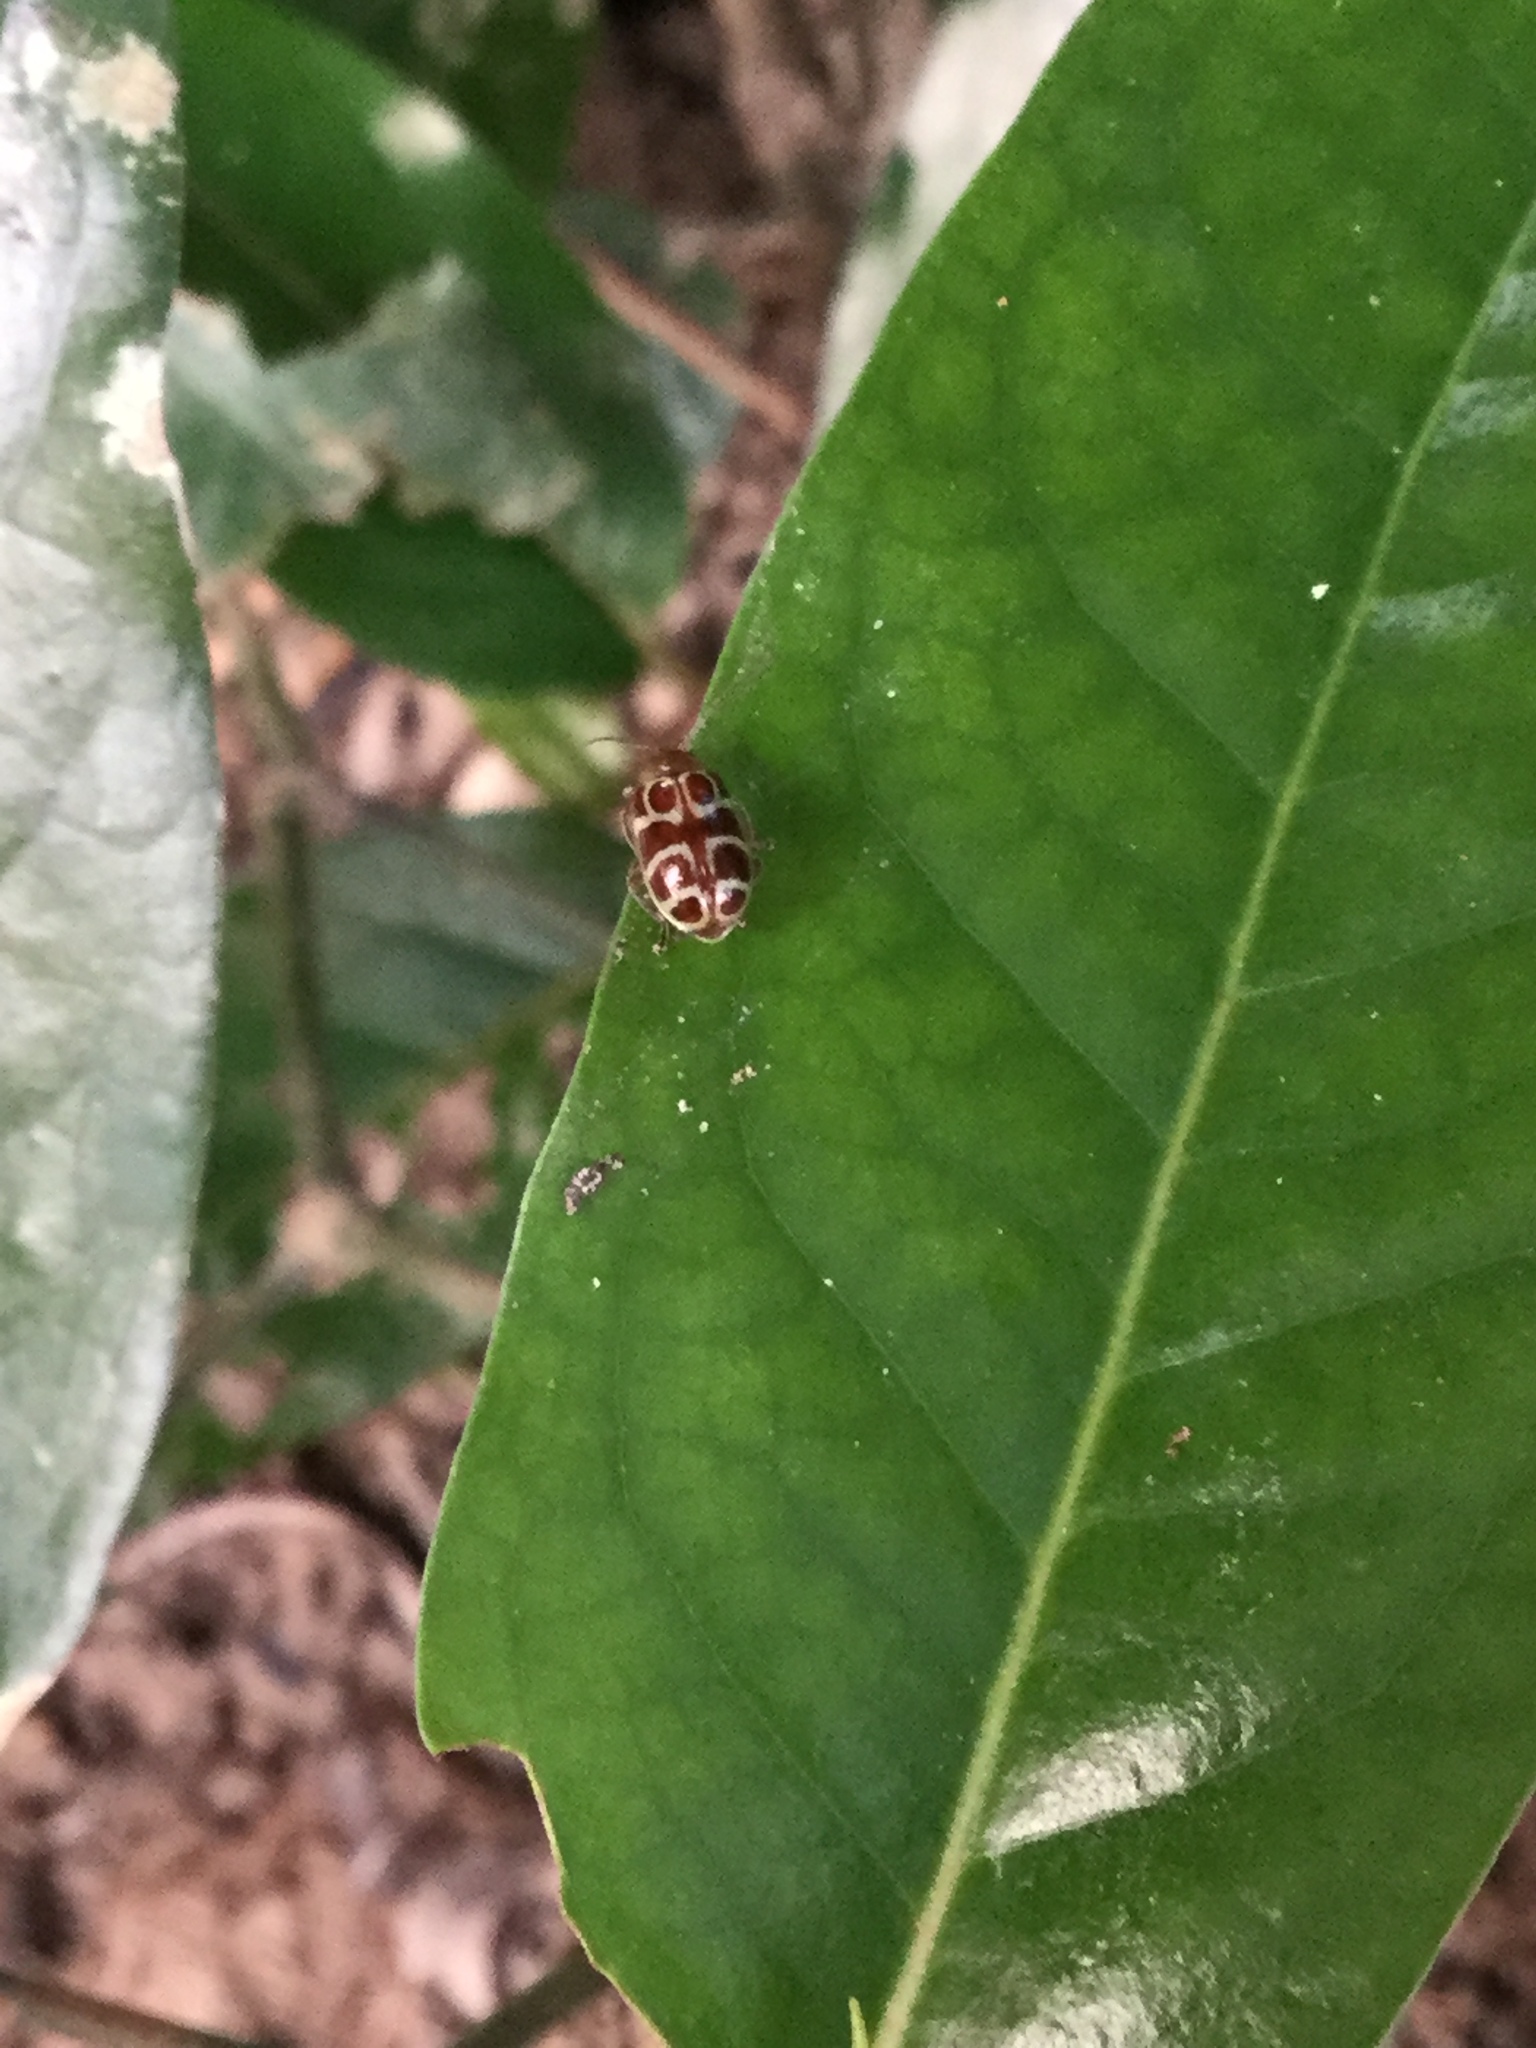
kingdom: Animalia
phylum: Arthropoda
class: Insecta
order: Coleoptera
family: Chrysomelidae
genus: Exora
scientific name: Exora olivacea
